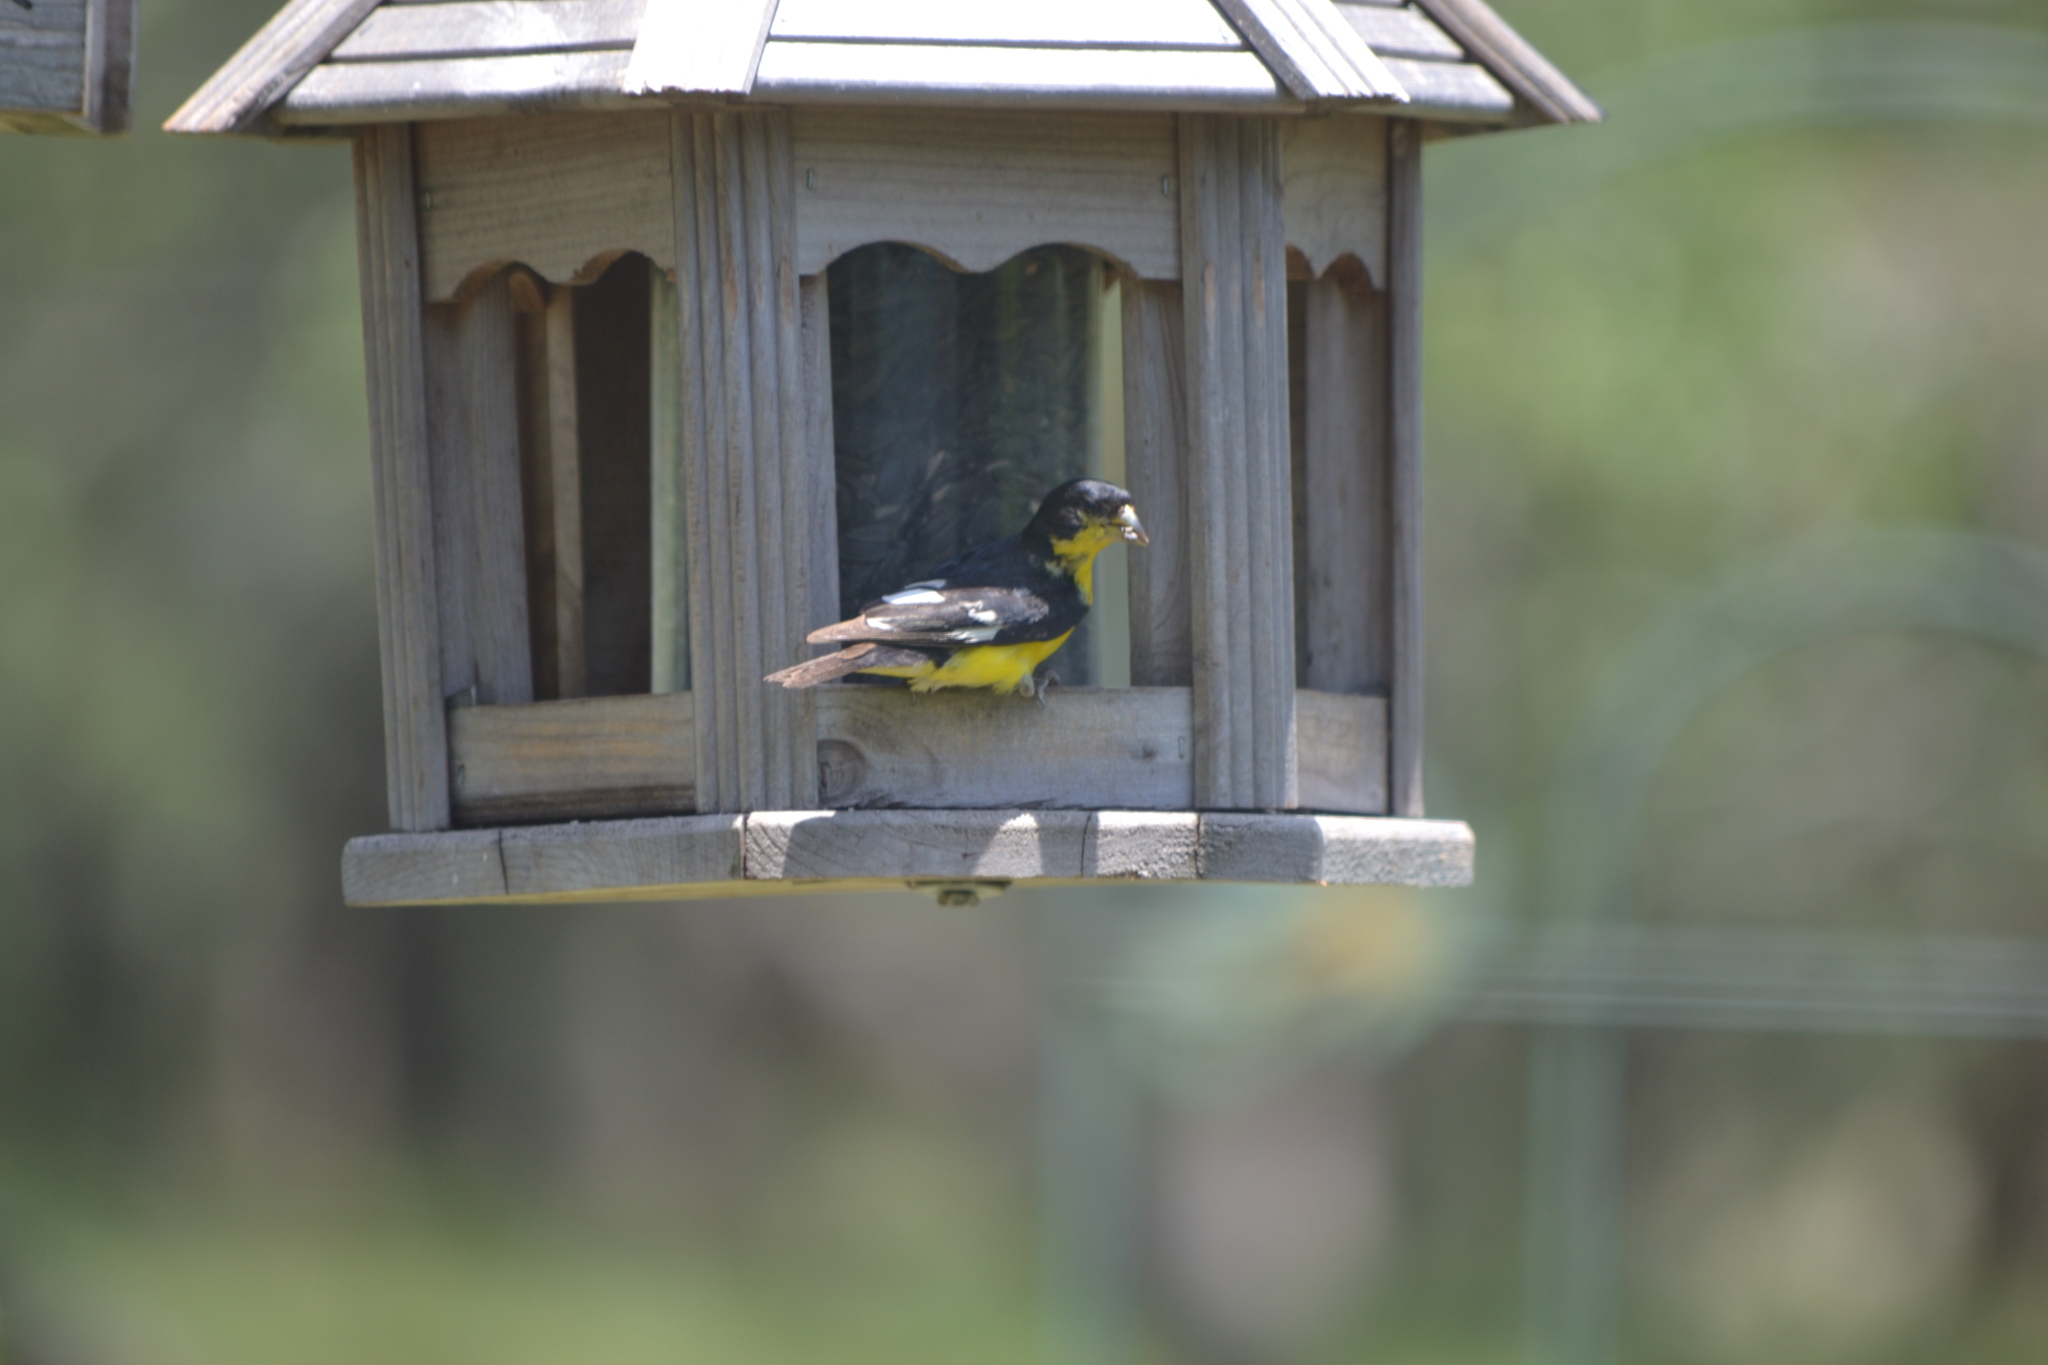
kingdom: Animalia
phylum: Chordata
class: Aves
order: Passeriformes
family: Fringillidae
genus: Spinus
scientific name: Spinus psaltria
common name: Lesser goldfinch
